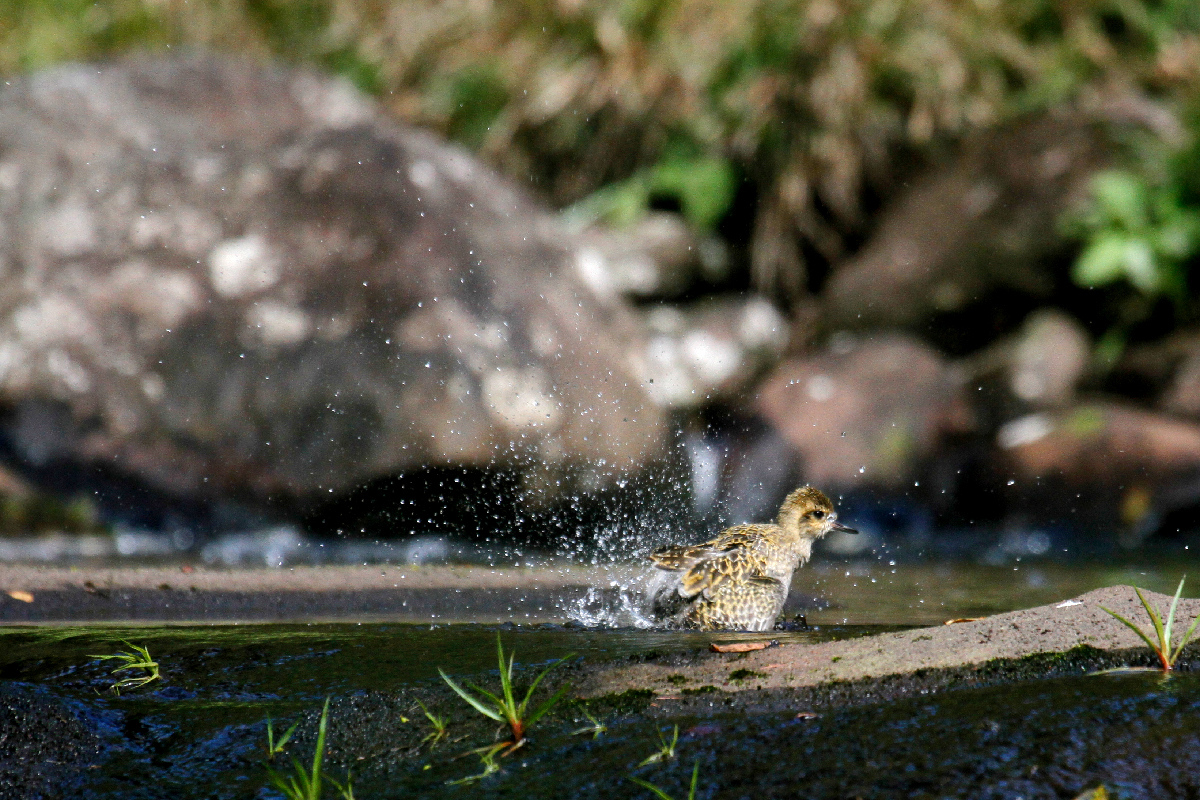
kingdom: Animalia
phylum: Chordata
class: Aves
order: Charadriiformes
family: Charadriidae
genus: Pluvialis
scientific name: Pluvialis fulva
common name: Pacific golden plover
